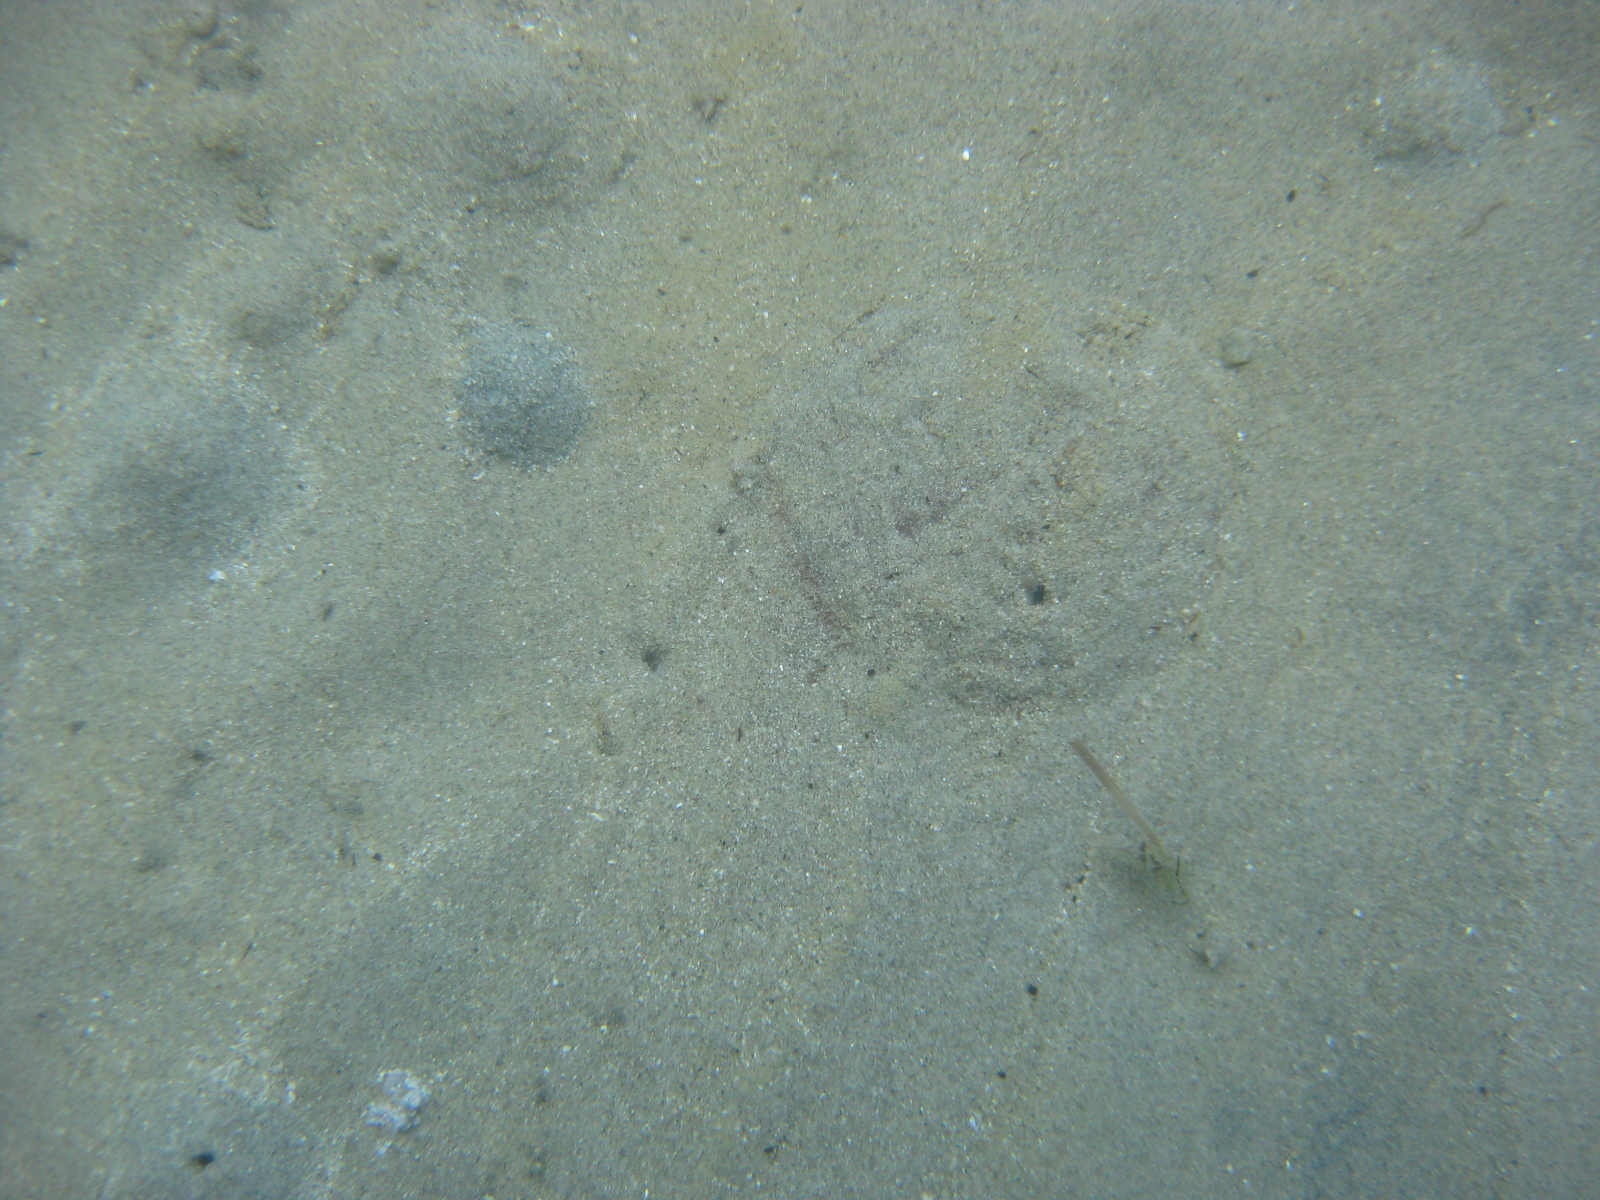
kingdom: Animalia
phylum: Echinodermata
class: Echinoidea
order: Clypeasteroida
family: Clypeasteridae
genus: Fellaster
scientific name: Fellaster zelandiae
